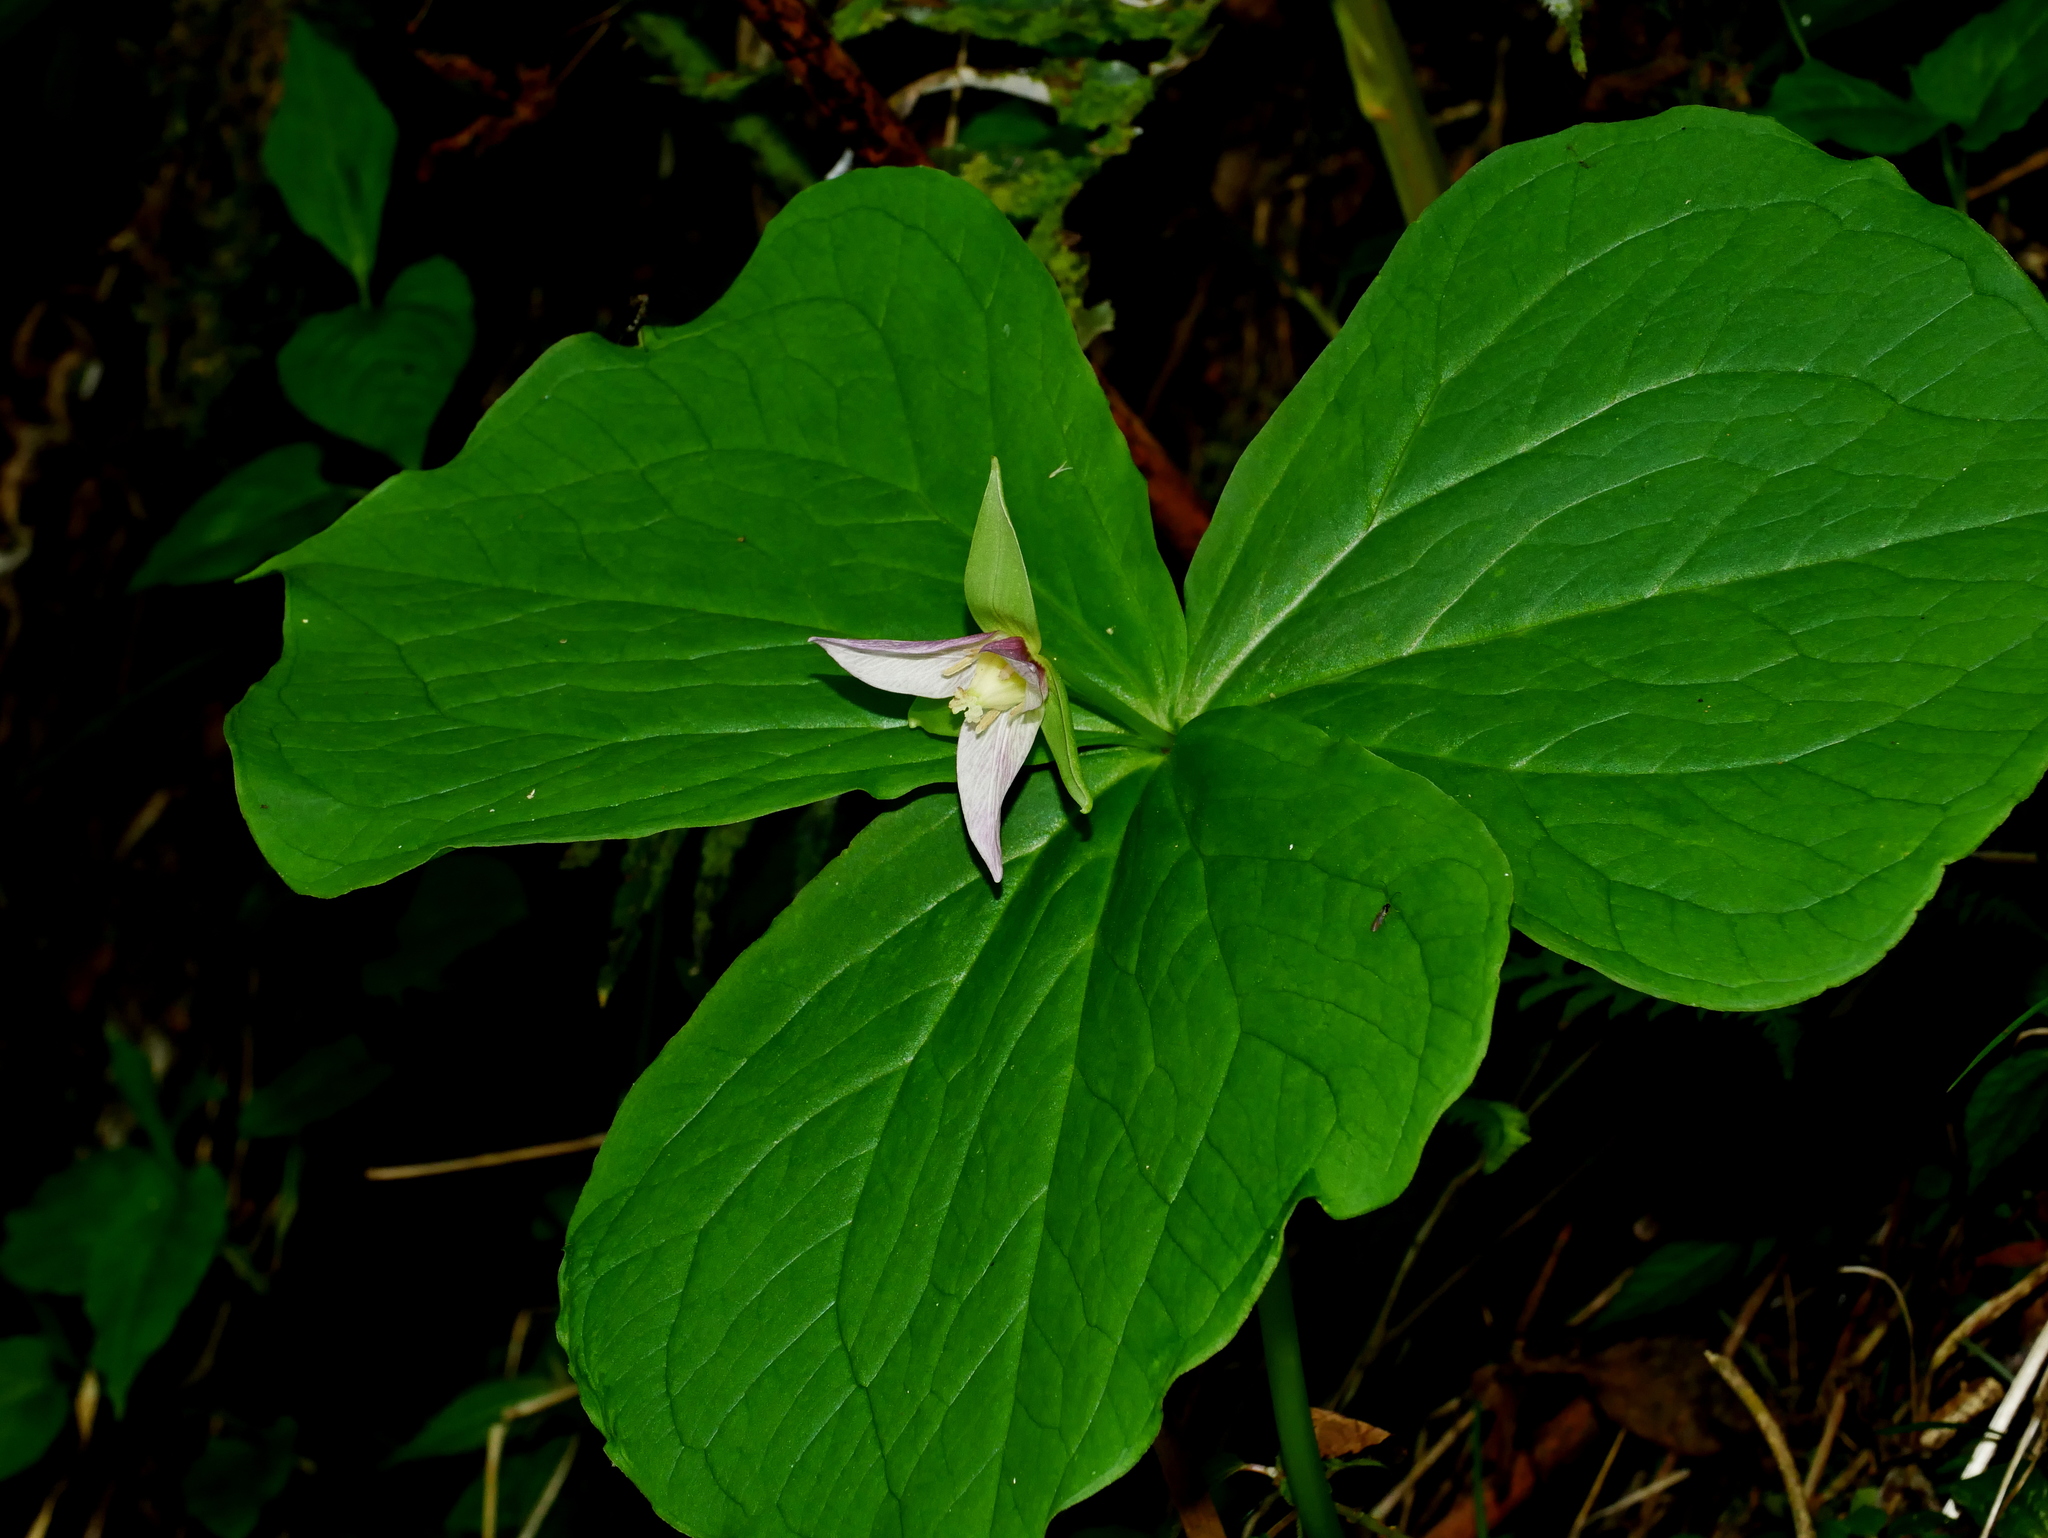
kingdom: Plantae
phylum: Tracheophyta
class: Liliopsida
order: Liliales
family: Melanthiaceae
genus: Trillium
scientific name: Trillium tschonoskii
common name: A pearl on head
